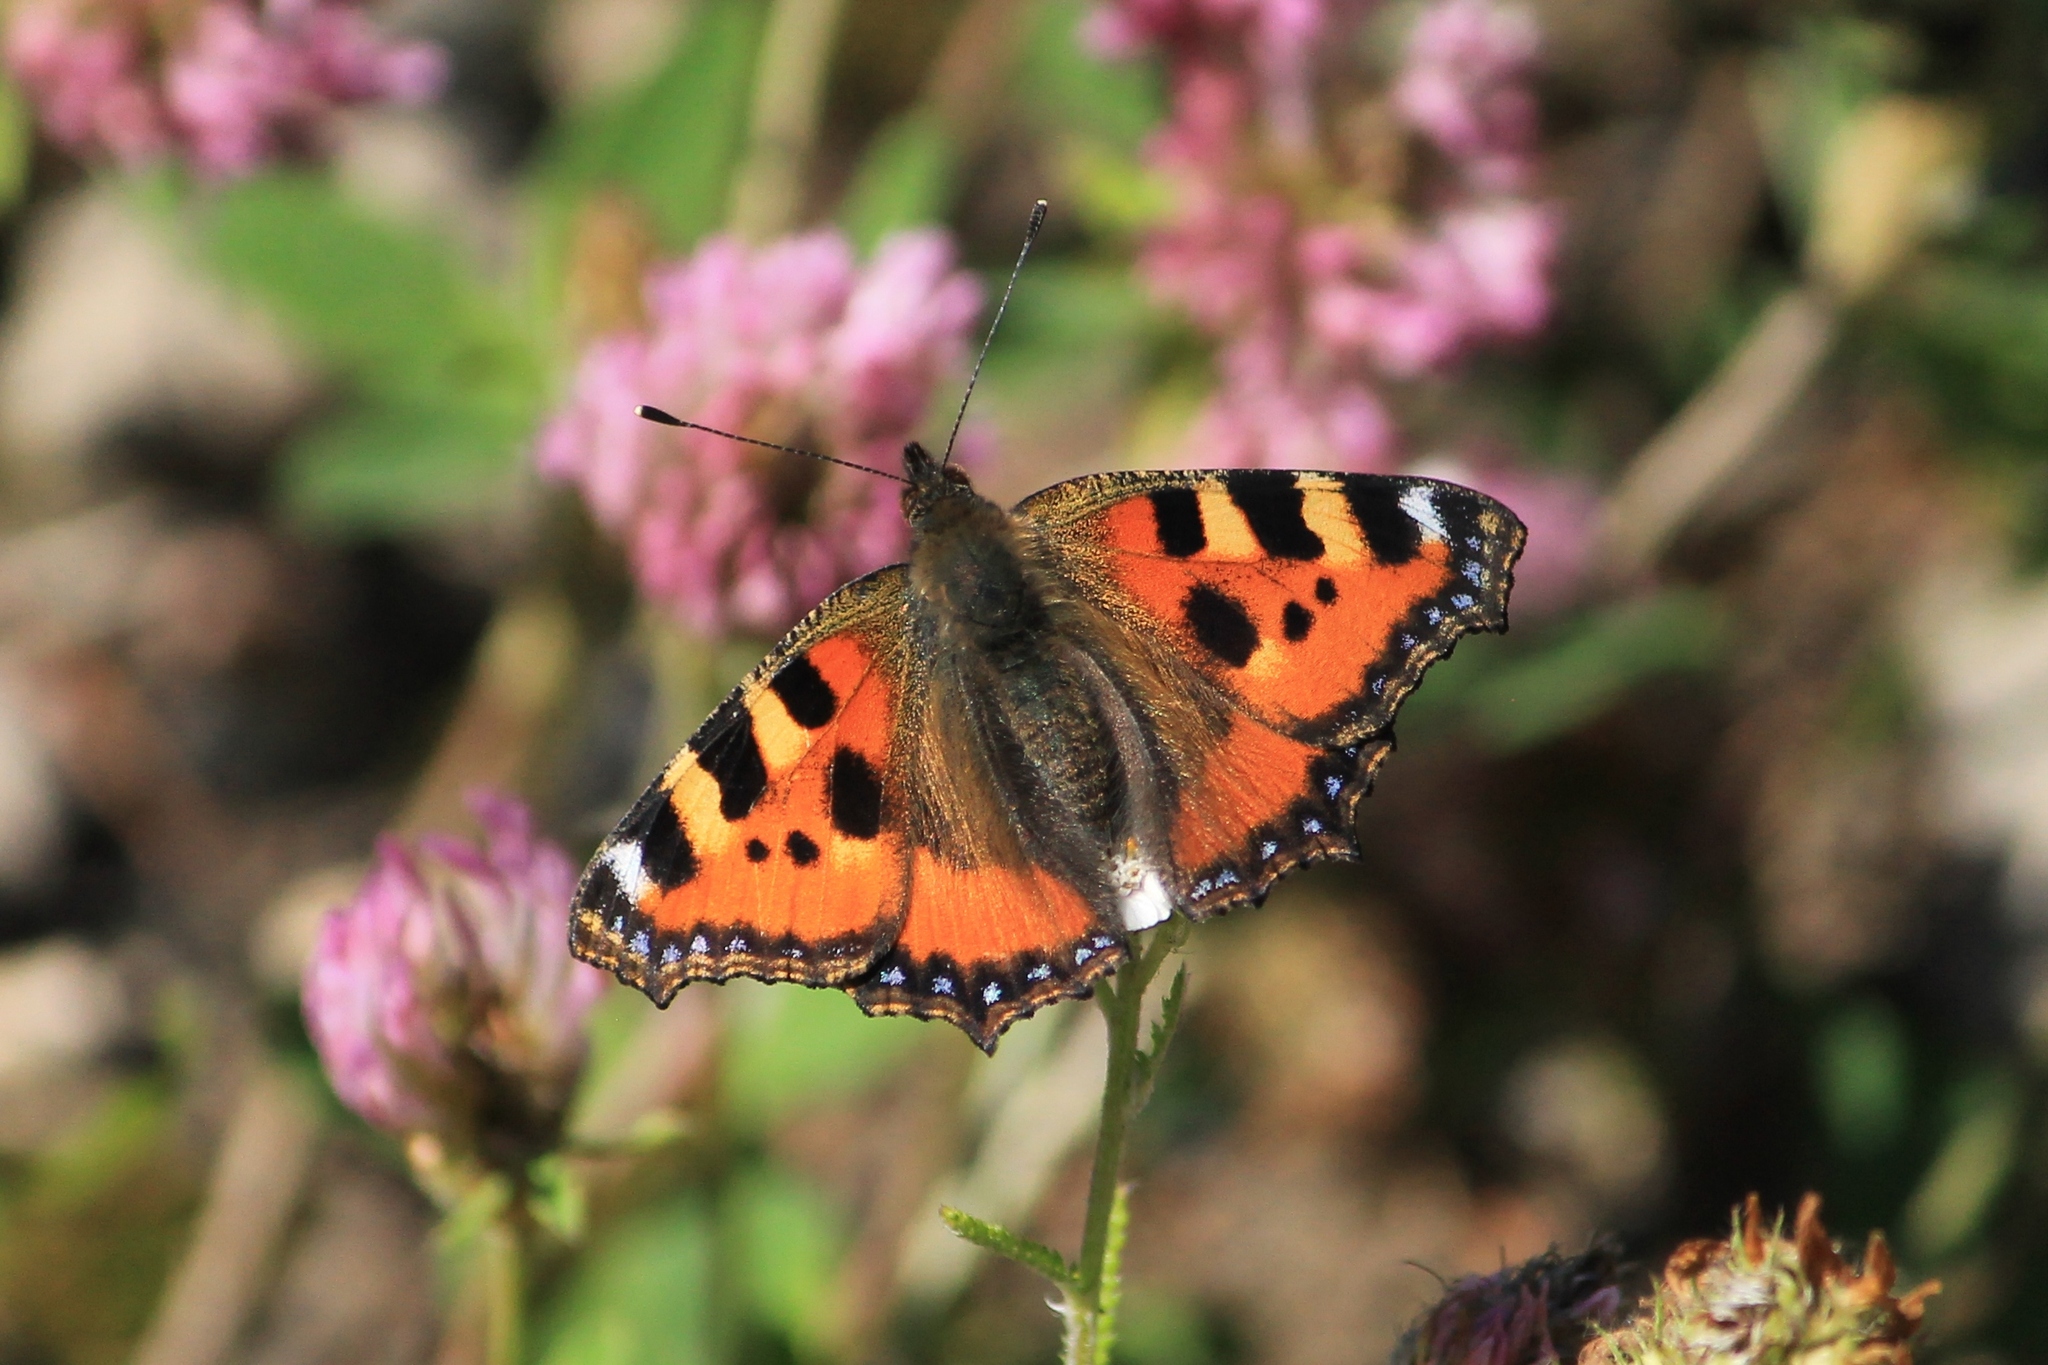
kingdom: Animalia
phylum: Arthropoda
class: Insecta
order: Lepidoptera
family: Nymphalidae
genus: Aglais
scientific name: Aglais urticae
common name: Small tortoiseshell
